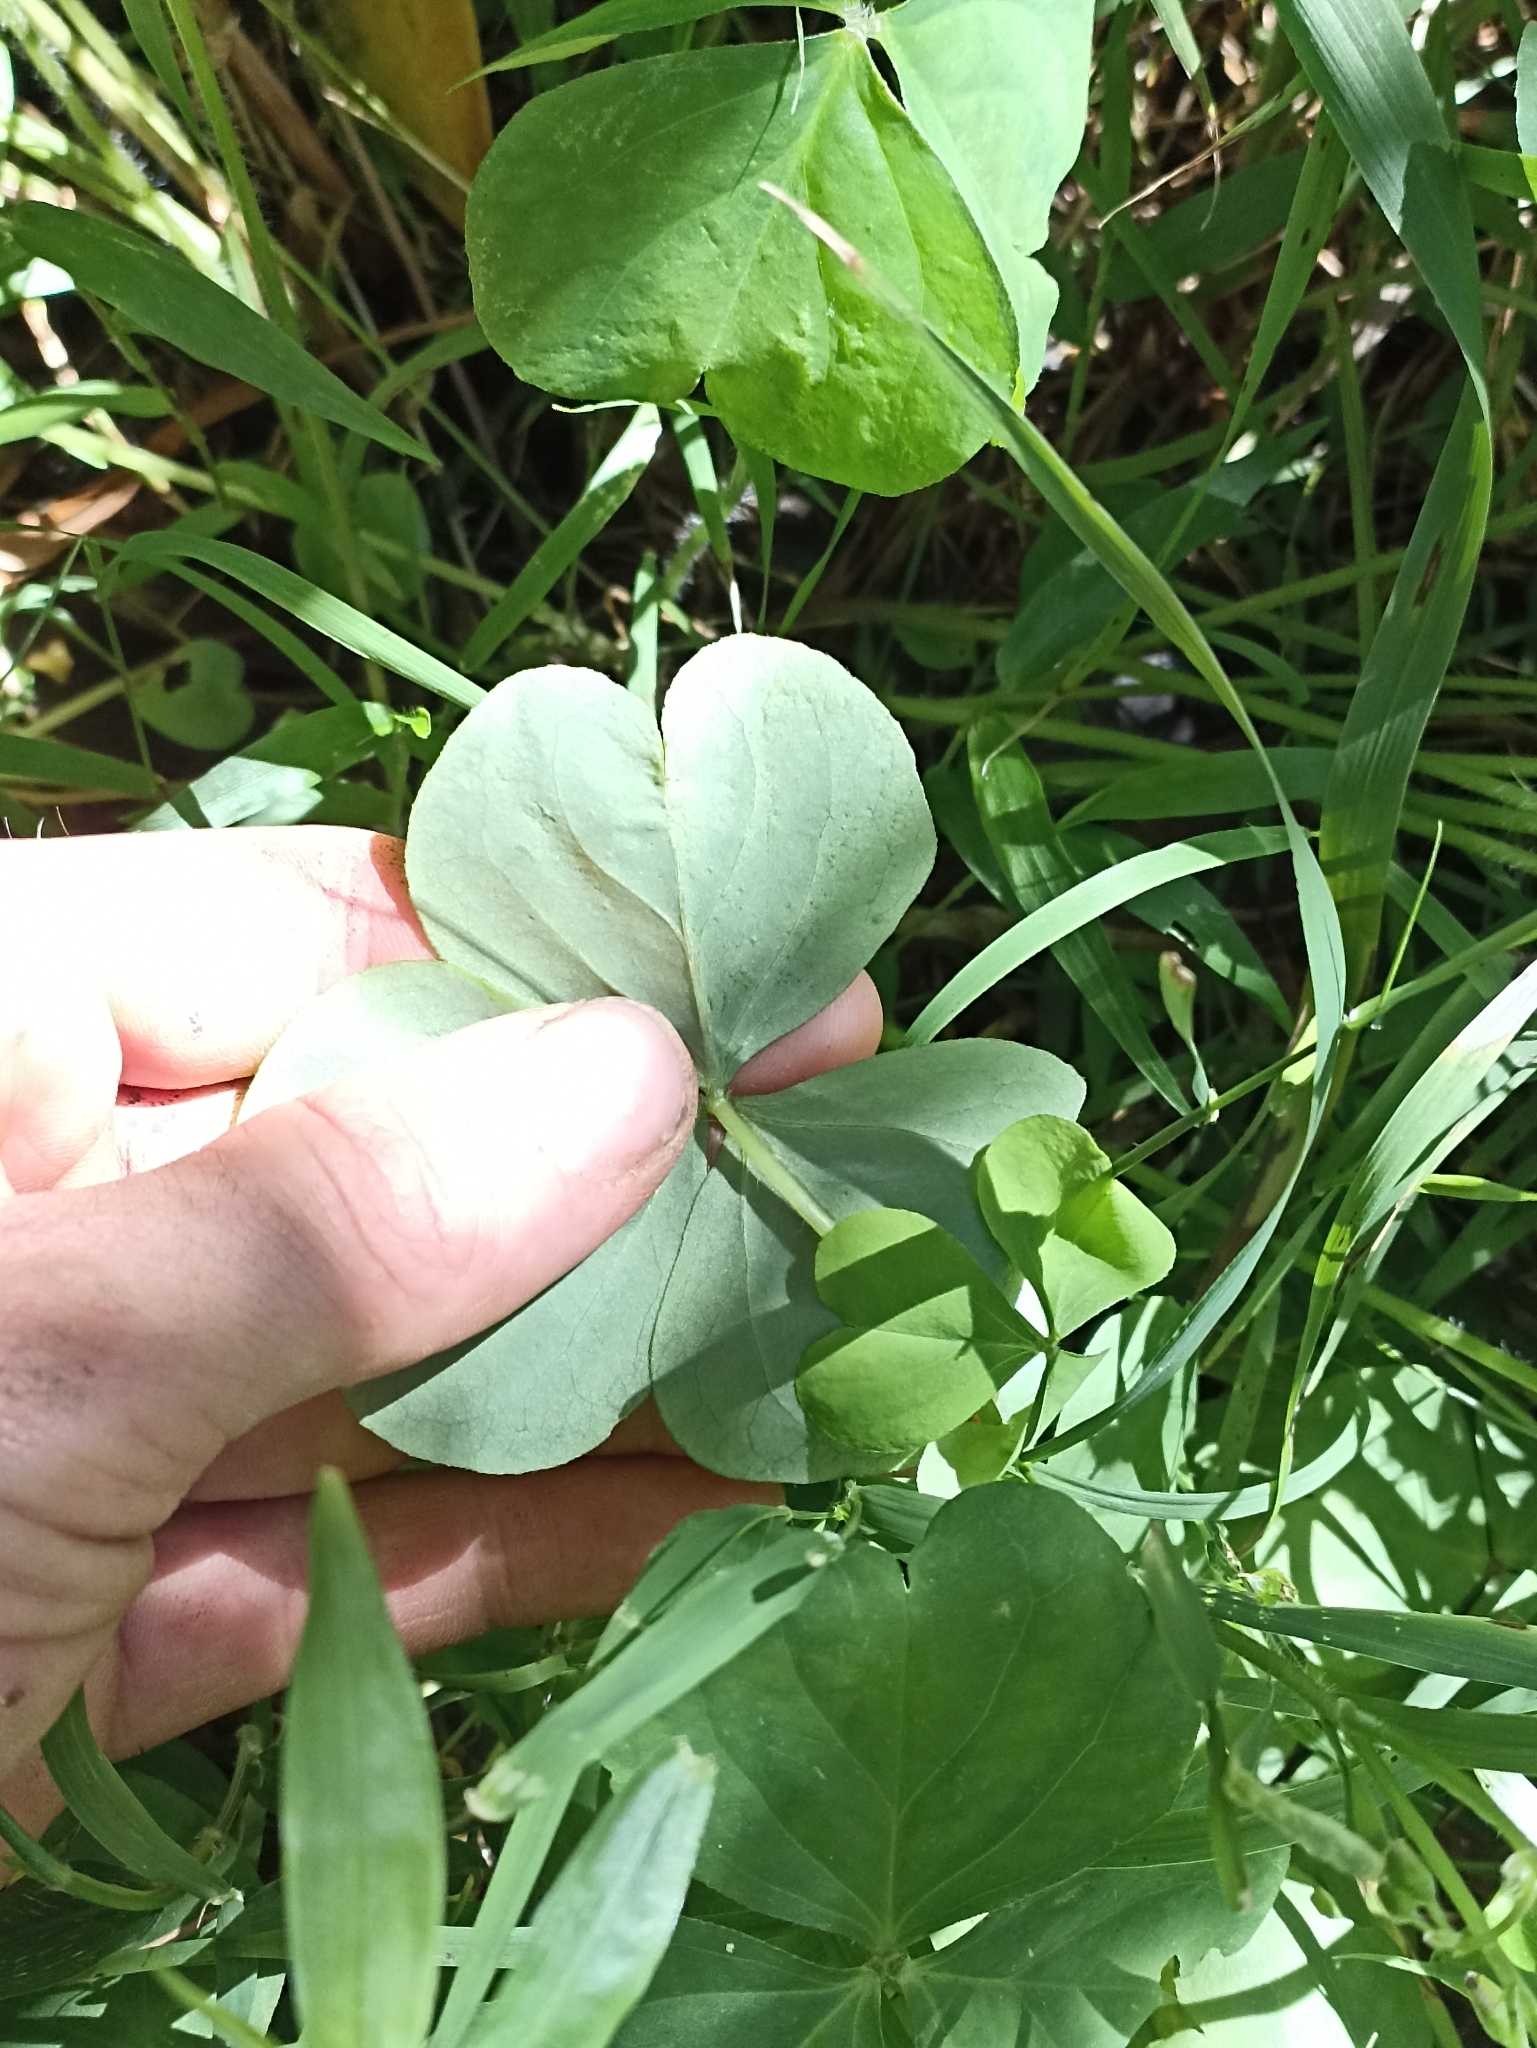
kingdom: Plantae
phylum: Tracheophyta
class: Magnoliopsida
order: Oxalidales
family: Oxalidaceae
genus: Oxalis
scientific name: Oxalis debilis
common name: Large-flowered pink-sorrel
